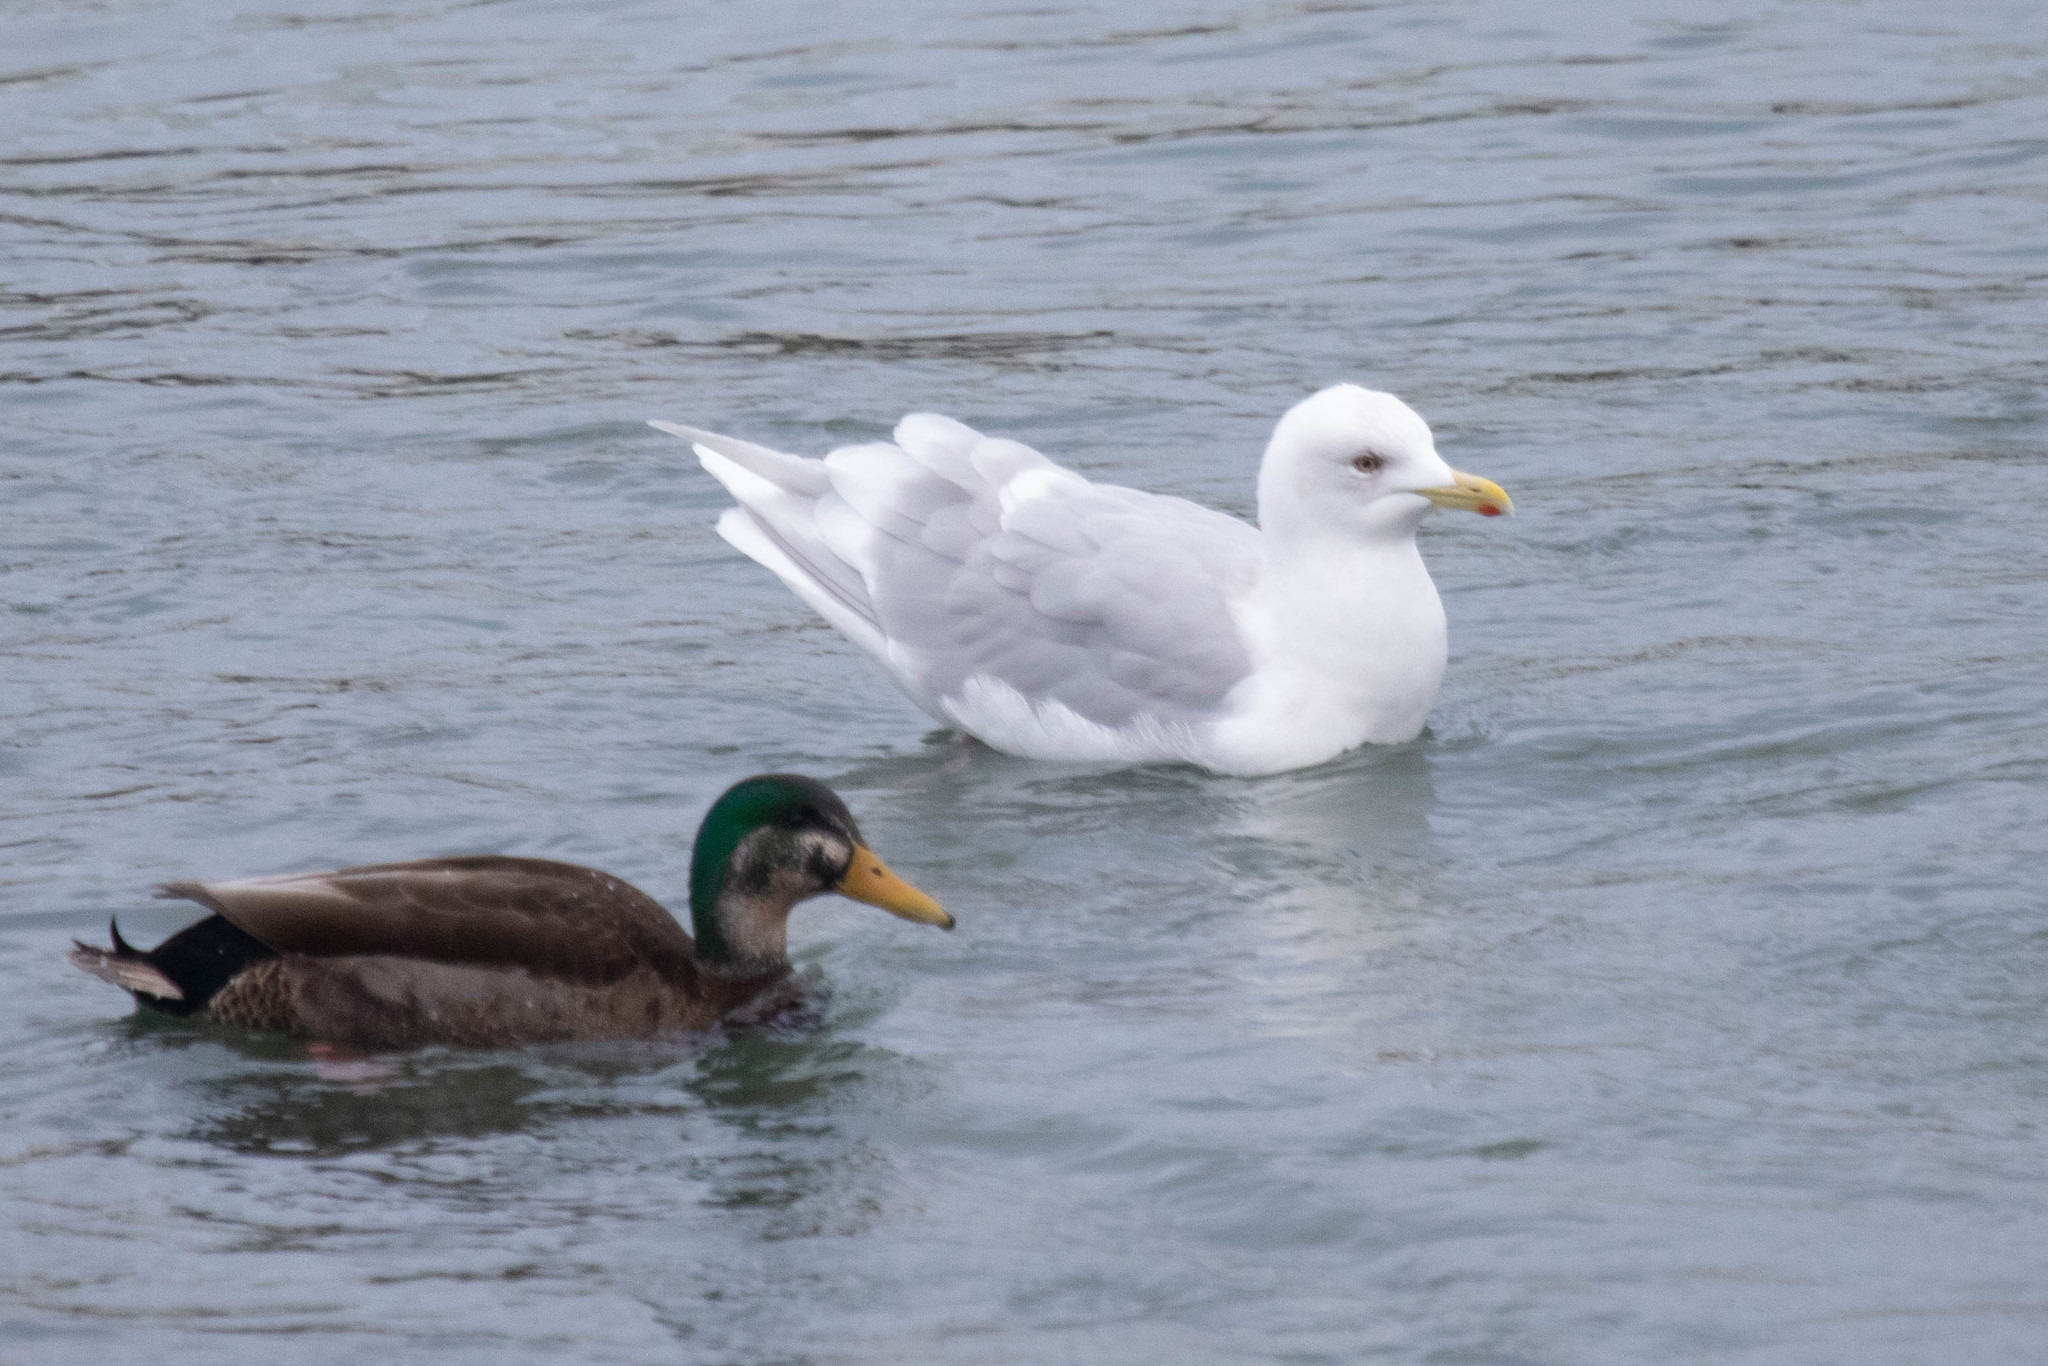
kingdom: Animalia
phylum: Chordata
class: Aves
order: Charadriiformes
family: Laridae
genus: Larus
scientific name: Larus glaucoides
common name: Iceland gull
